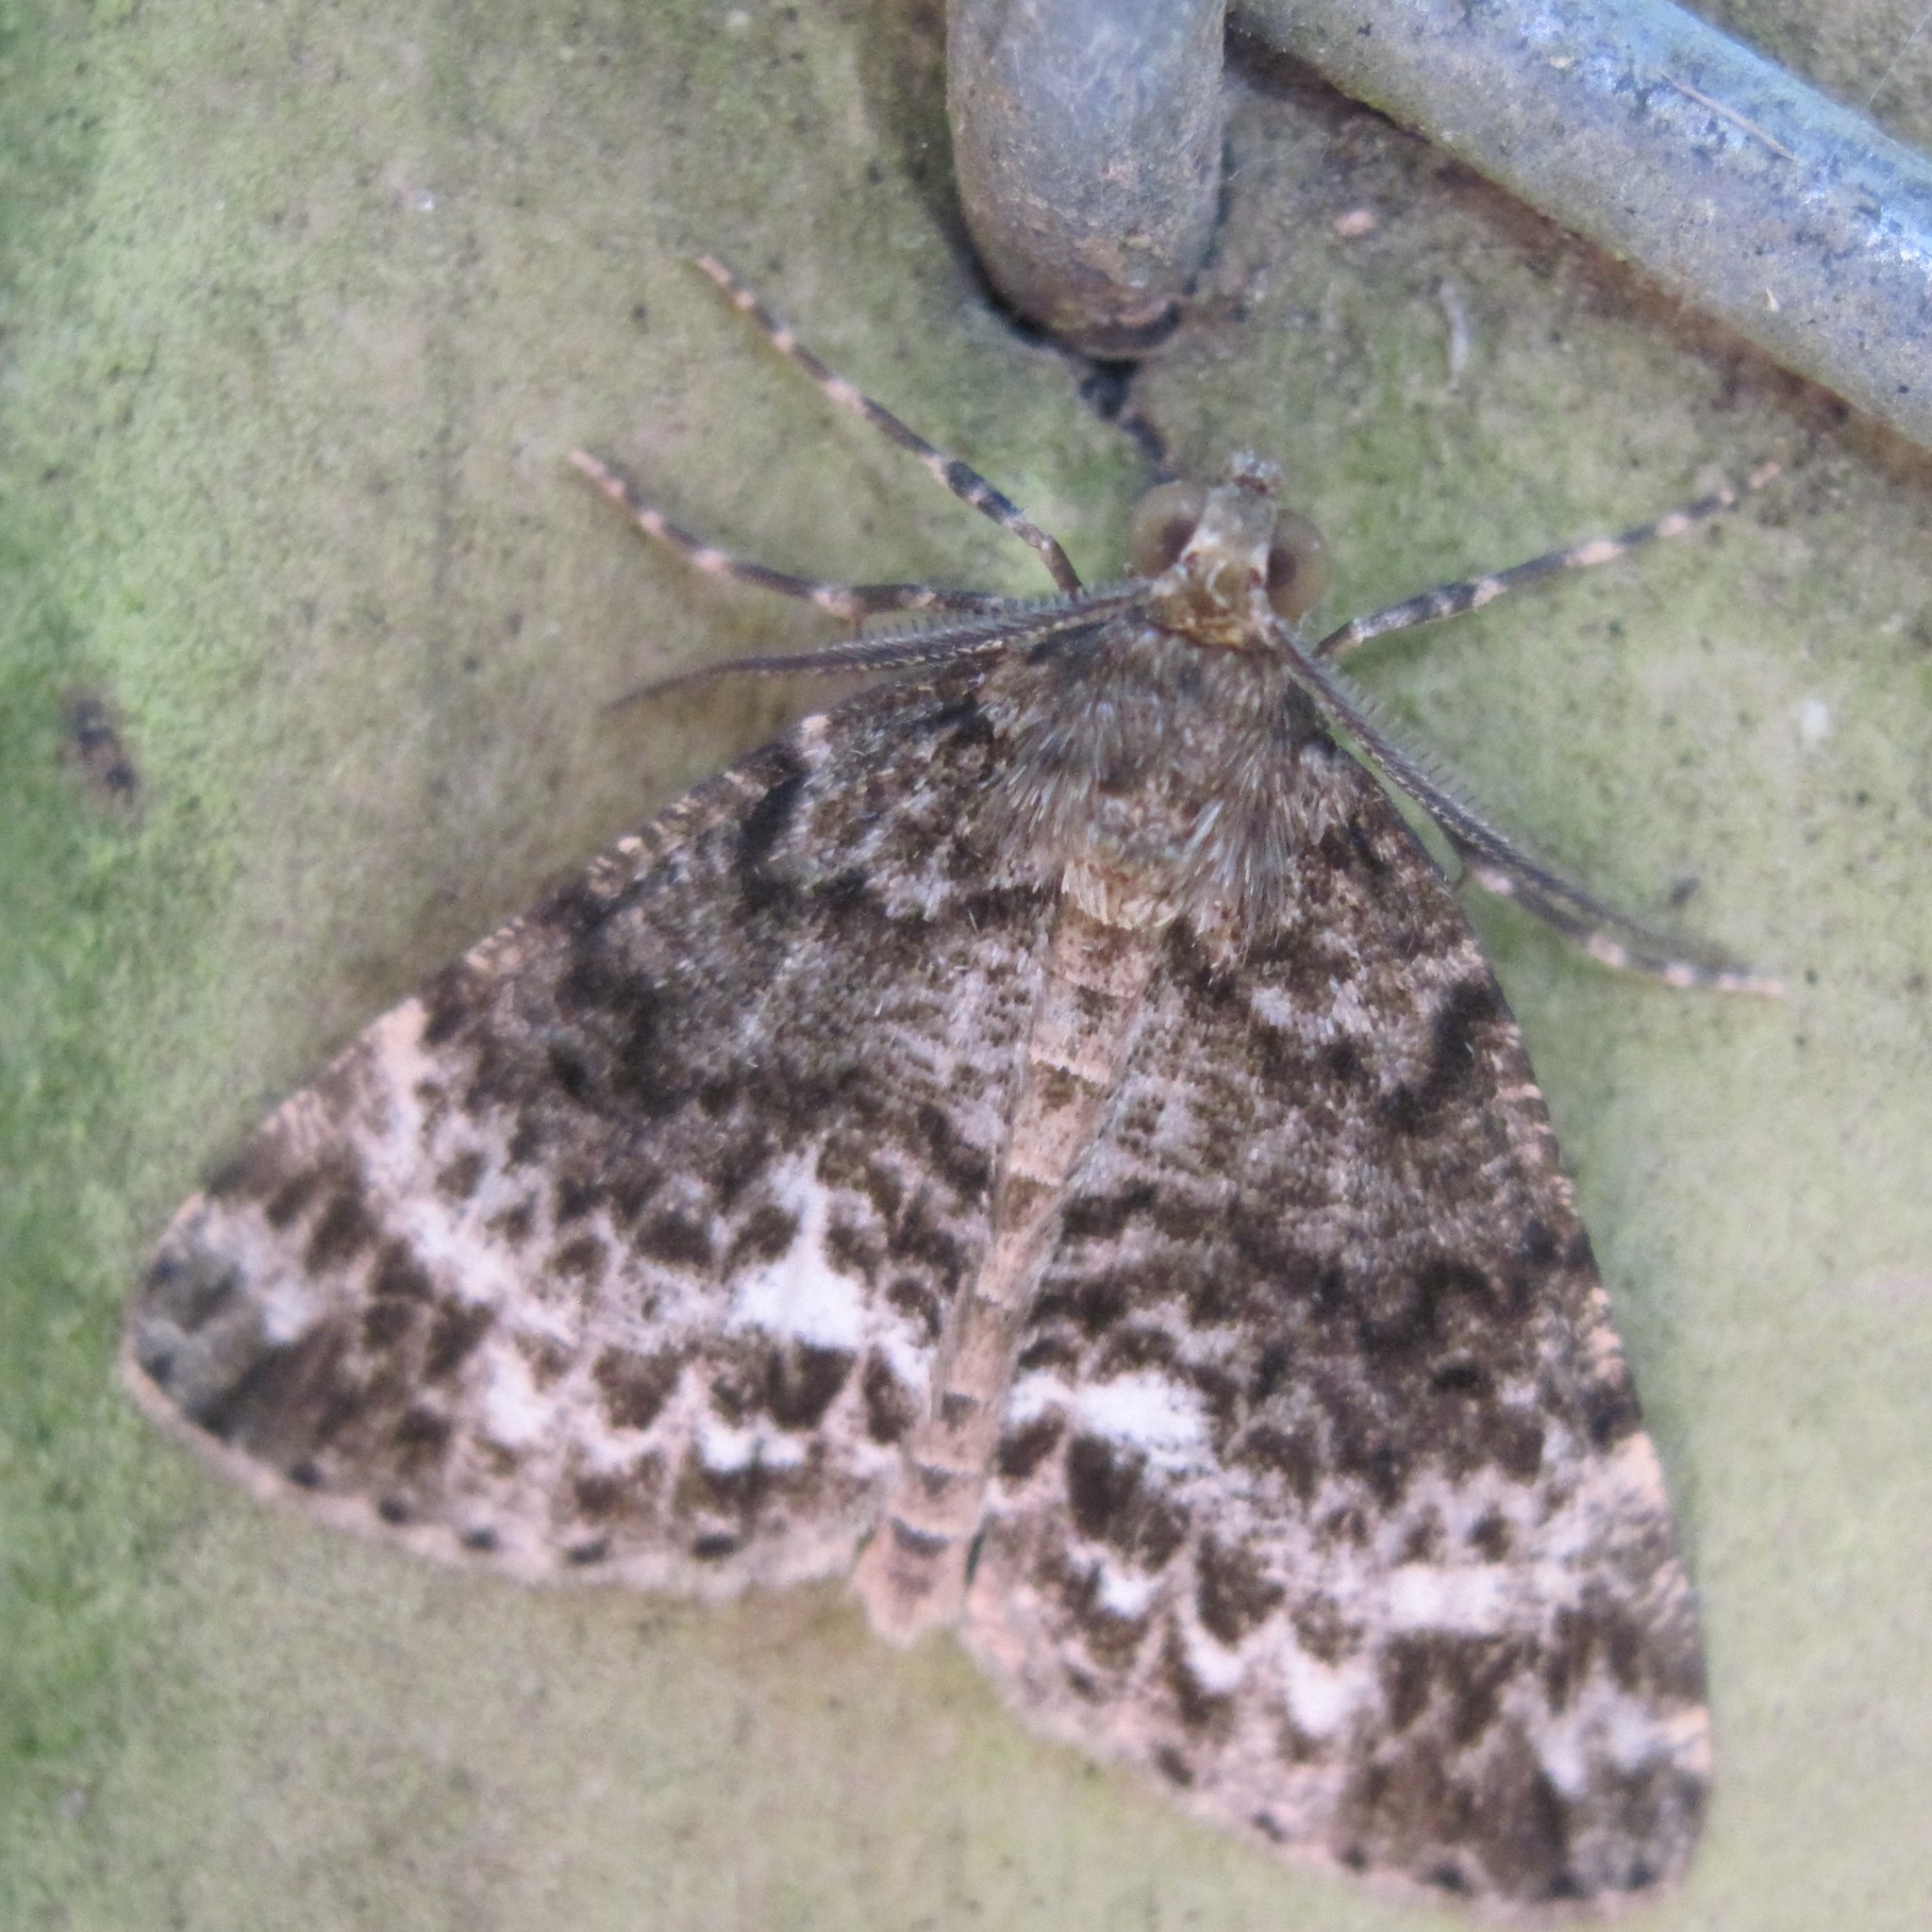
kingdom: Animalia
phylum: Arthropoda
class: Insecta
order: Lepidoptera
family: Geometridae
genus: Pseudocoremia
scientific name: Pseudocoremia indistincta
